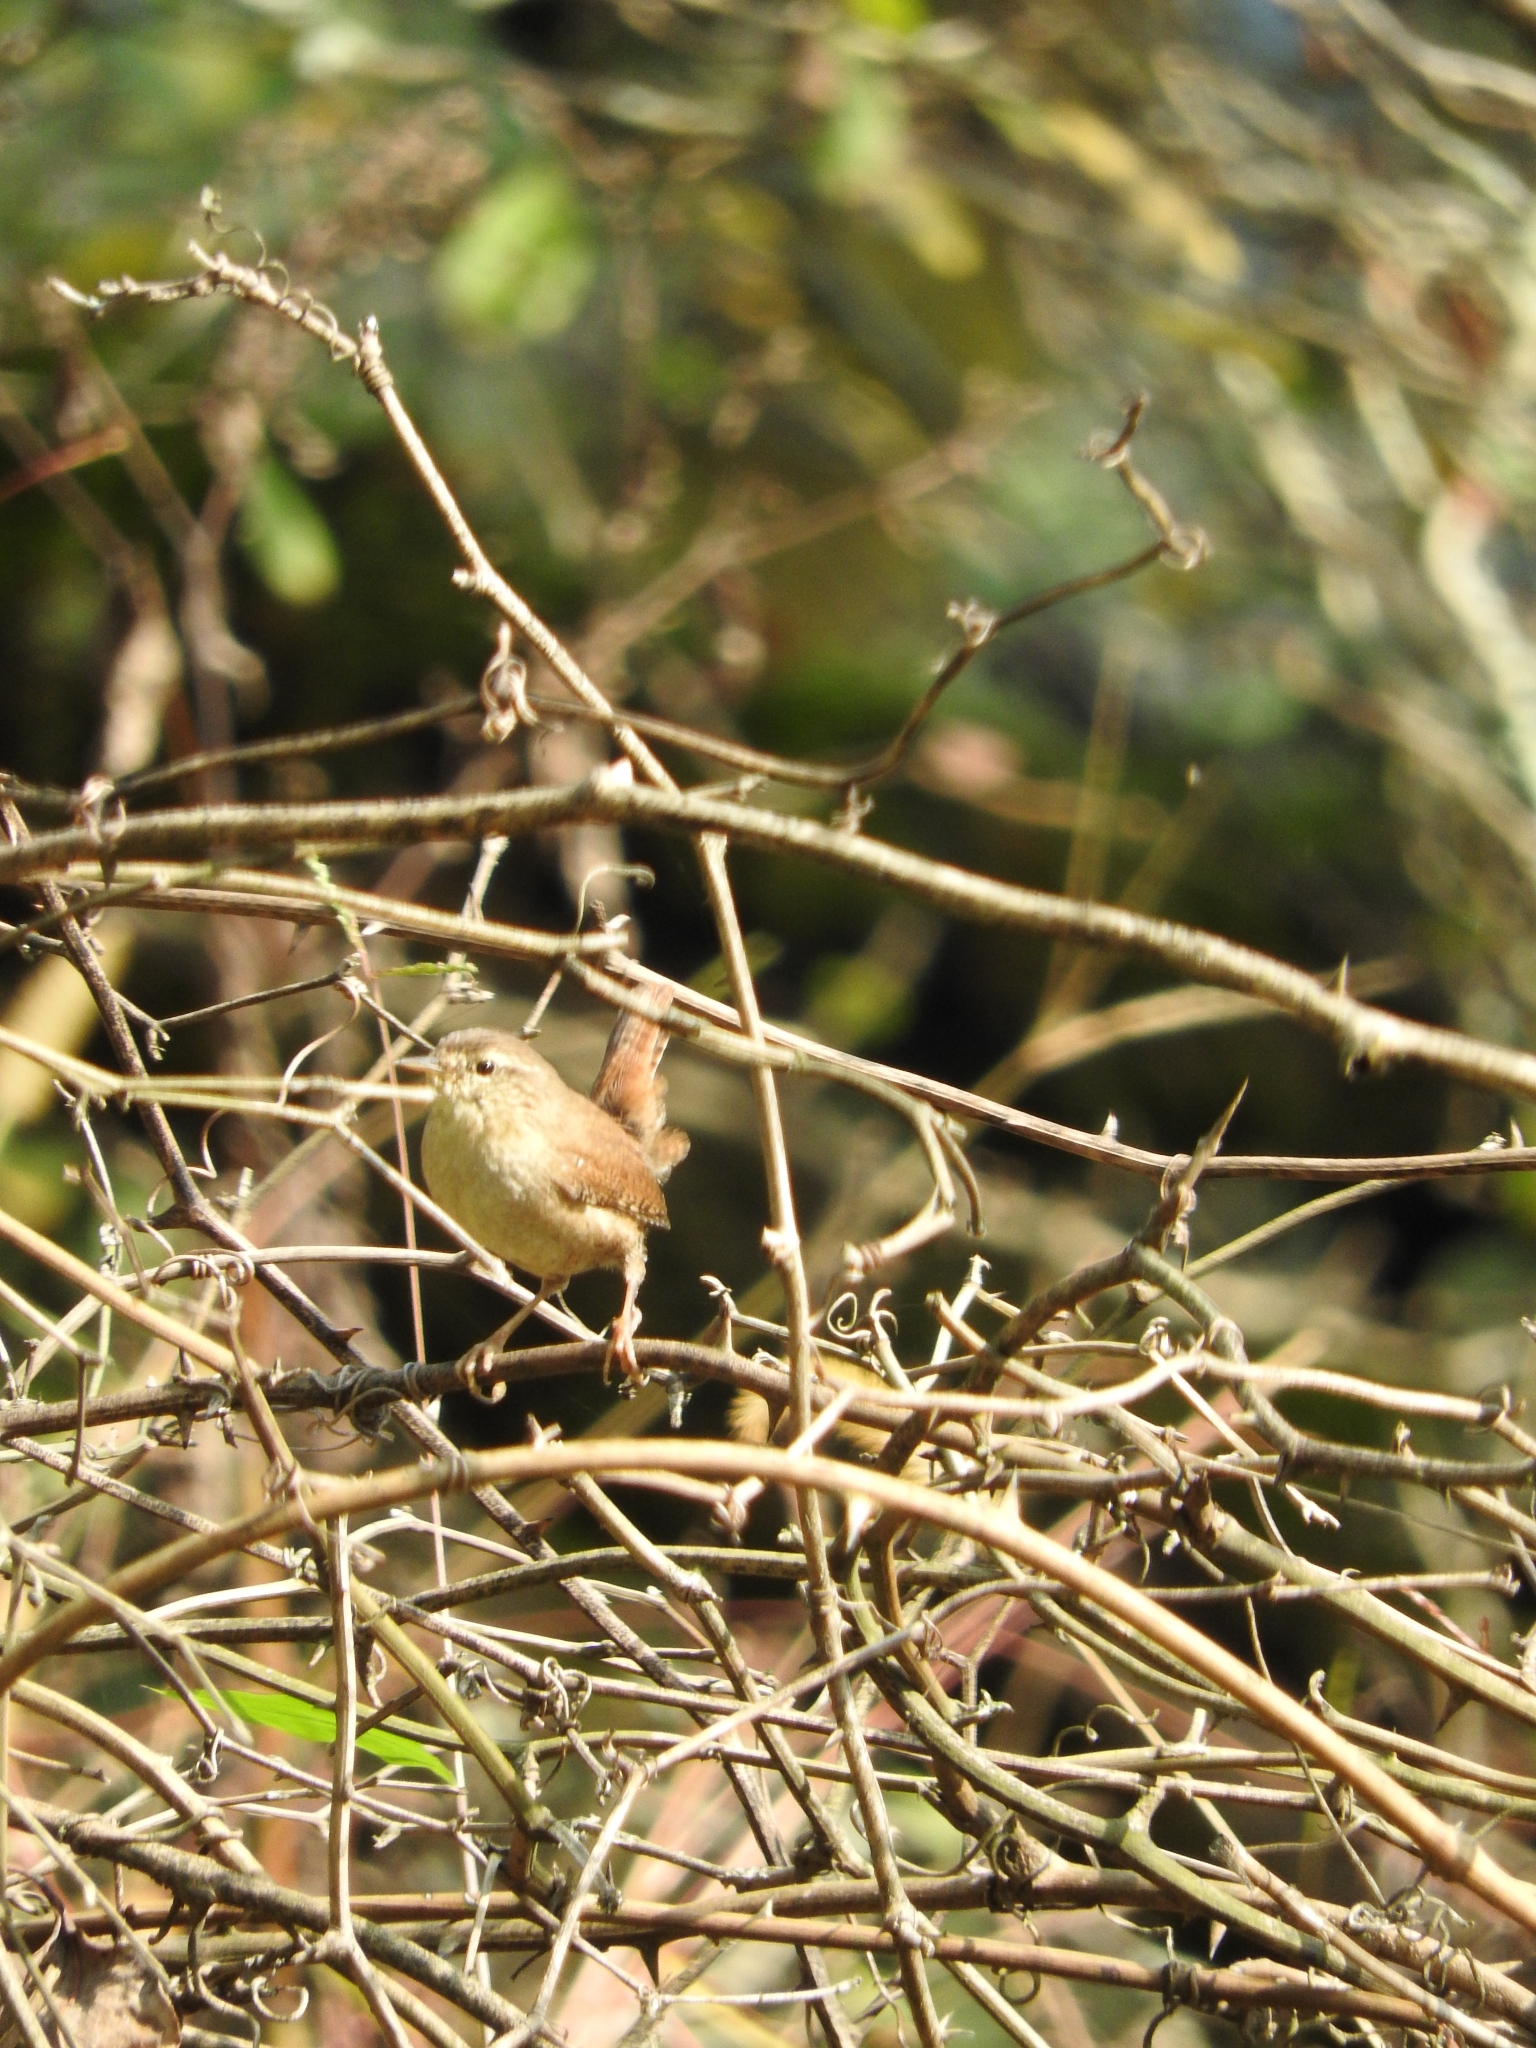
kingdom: Animalia
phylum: Chordata
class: Aves
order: Passeriformes
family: Troglodytidae
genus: Troglodytes
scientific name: Troglodytes troglodytes
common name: Eurasian wren
